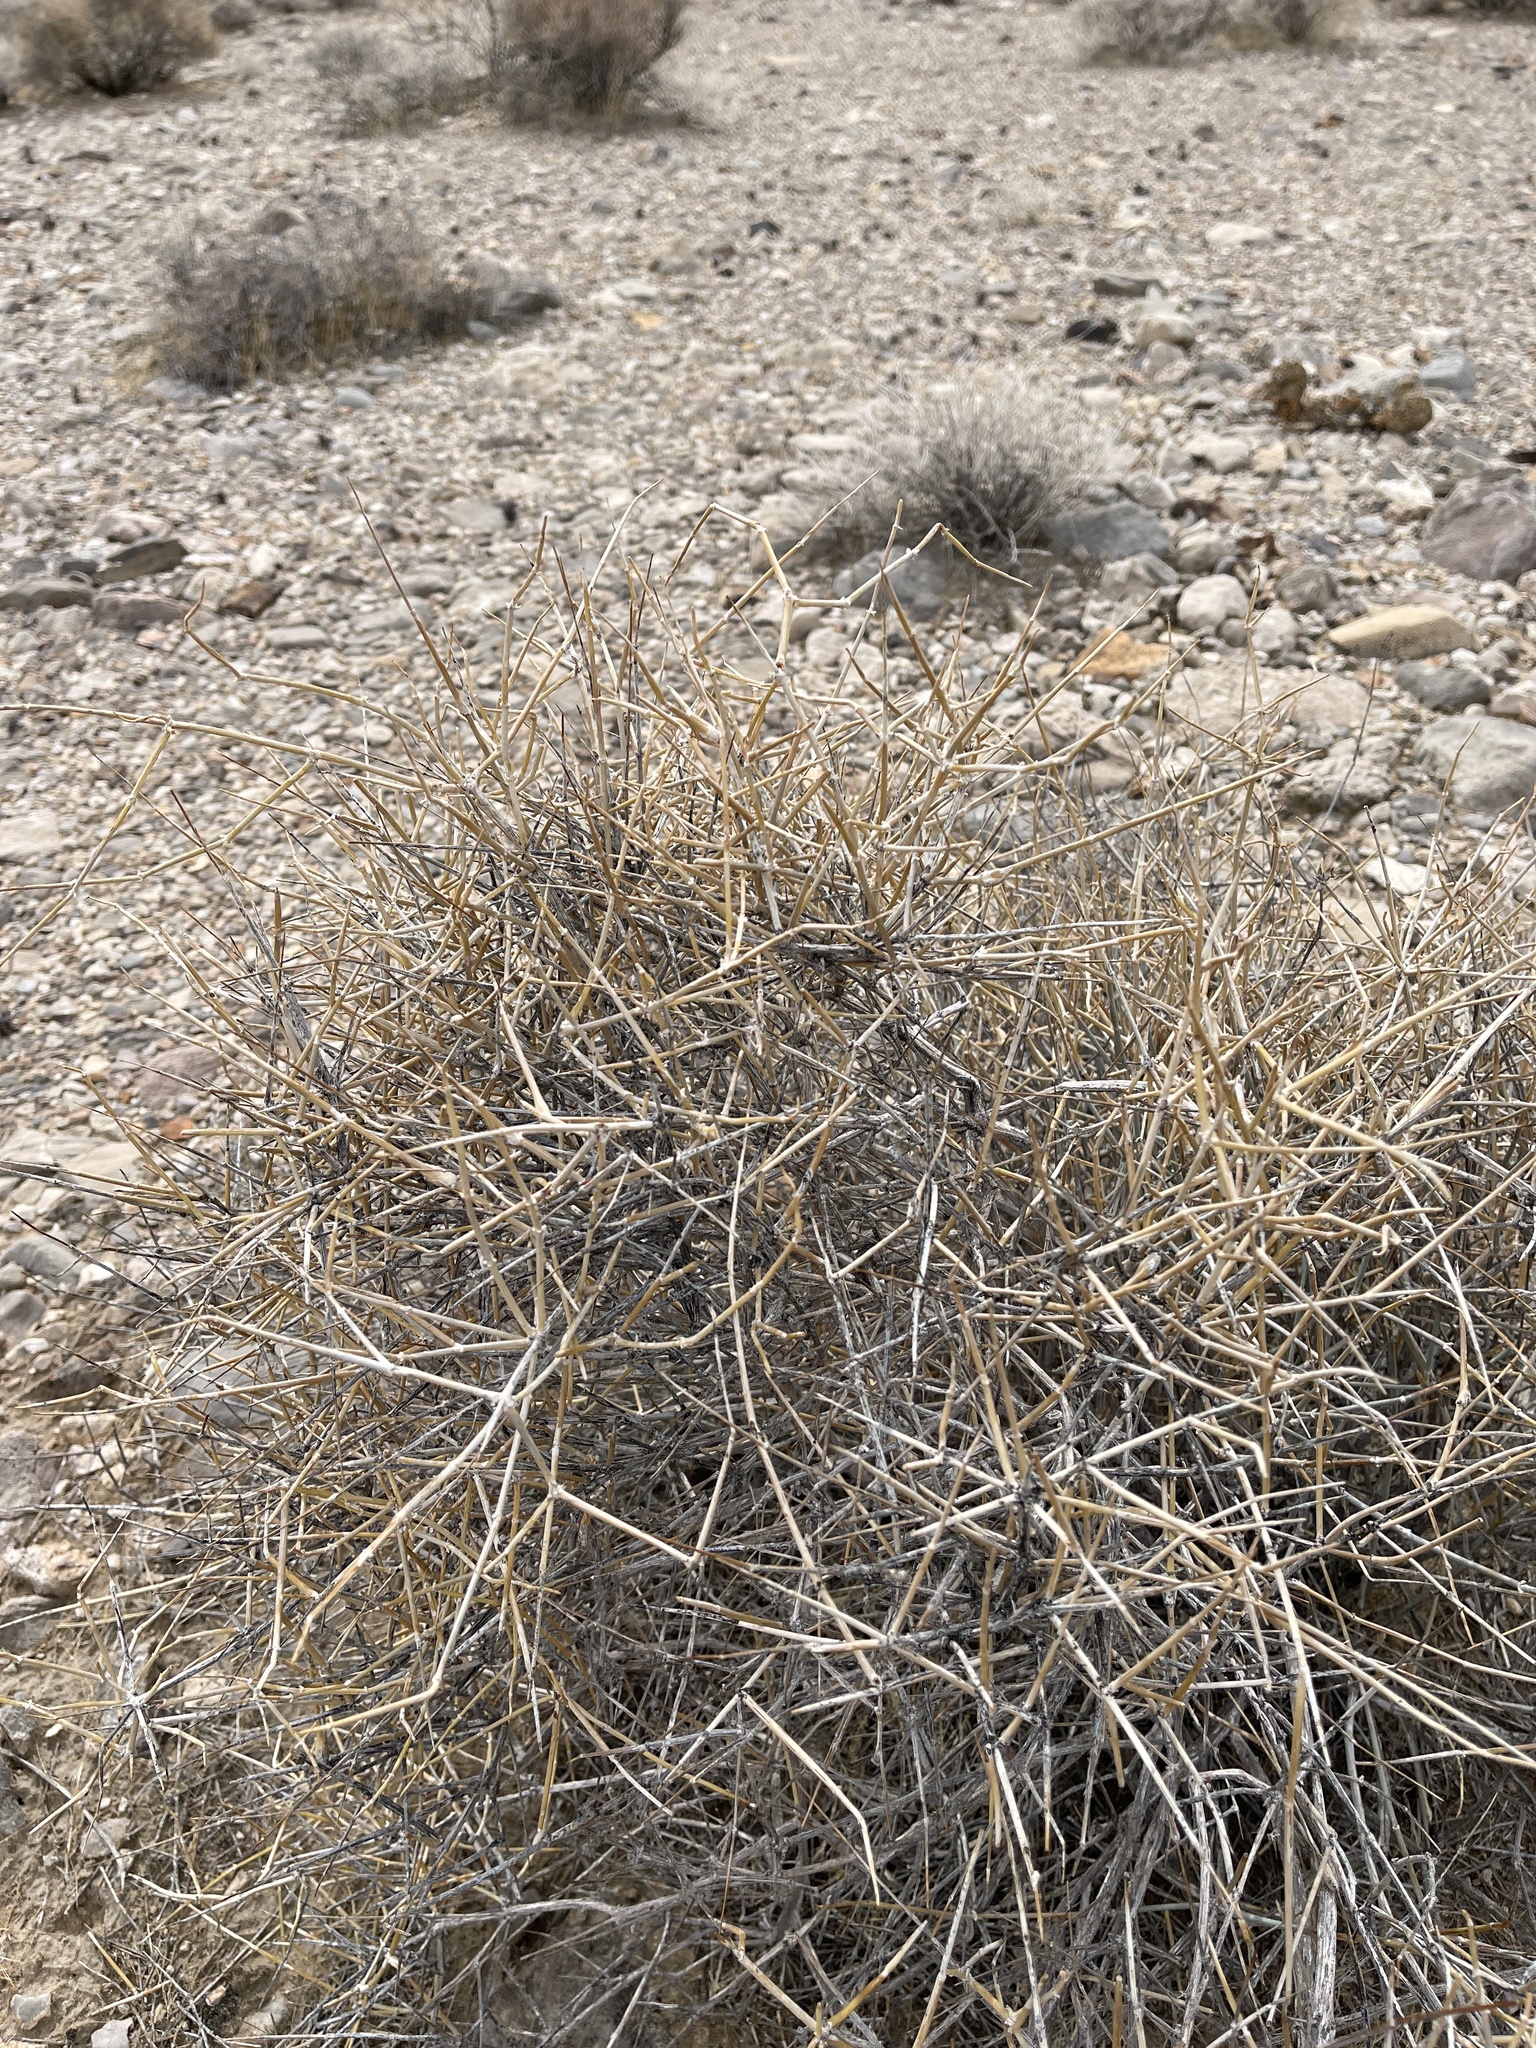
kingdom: Plantae
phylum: Tracheophyta
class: Gnetopsida
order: Ephedrales
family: Ephedraceae
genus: Ephedra
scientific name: Ephedra nevadensis
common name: Gray ephedra
